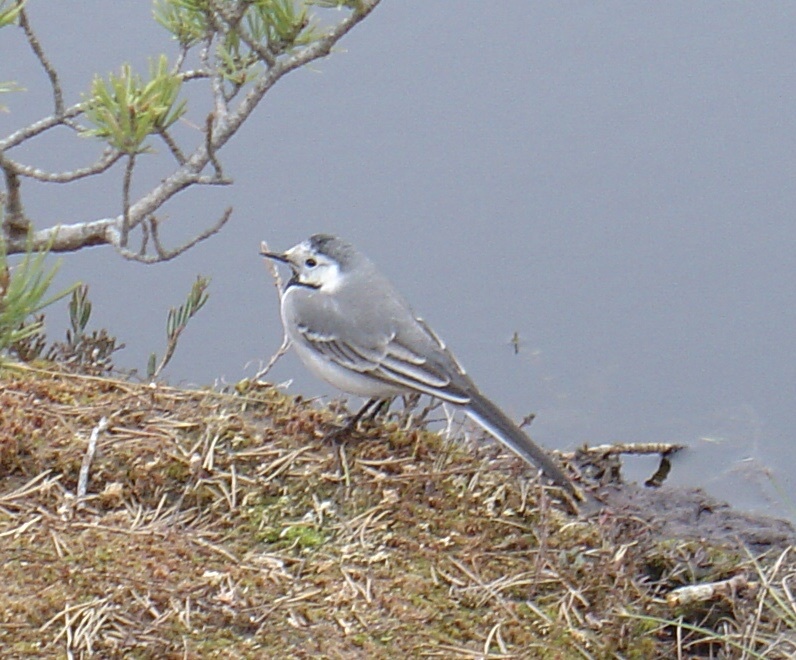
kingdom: Animalia
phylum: Chordata
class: Aves
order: Passeriformes
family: Motacillidae
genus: Motacilla
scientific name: Motacilla alba
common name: White wagtail
